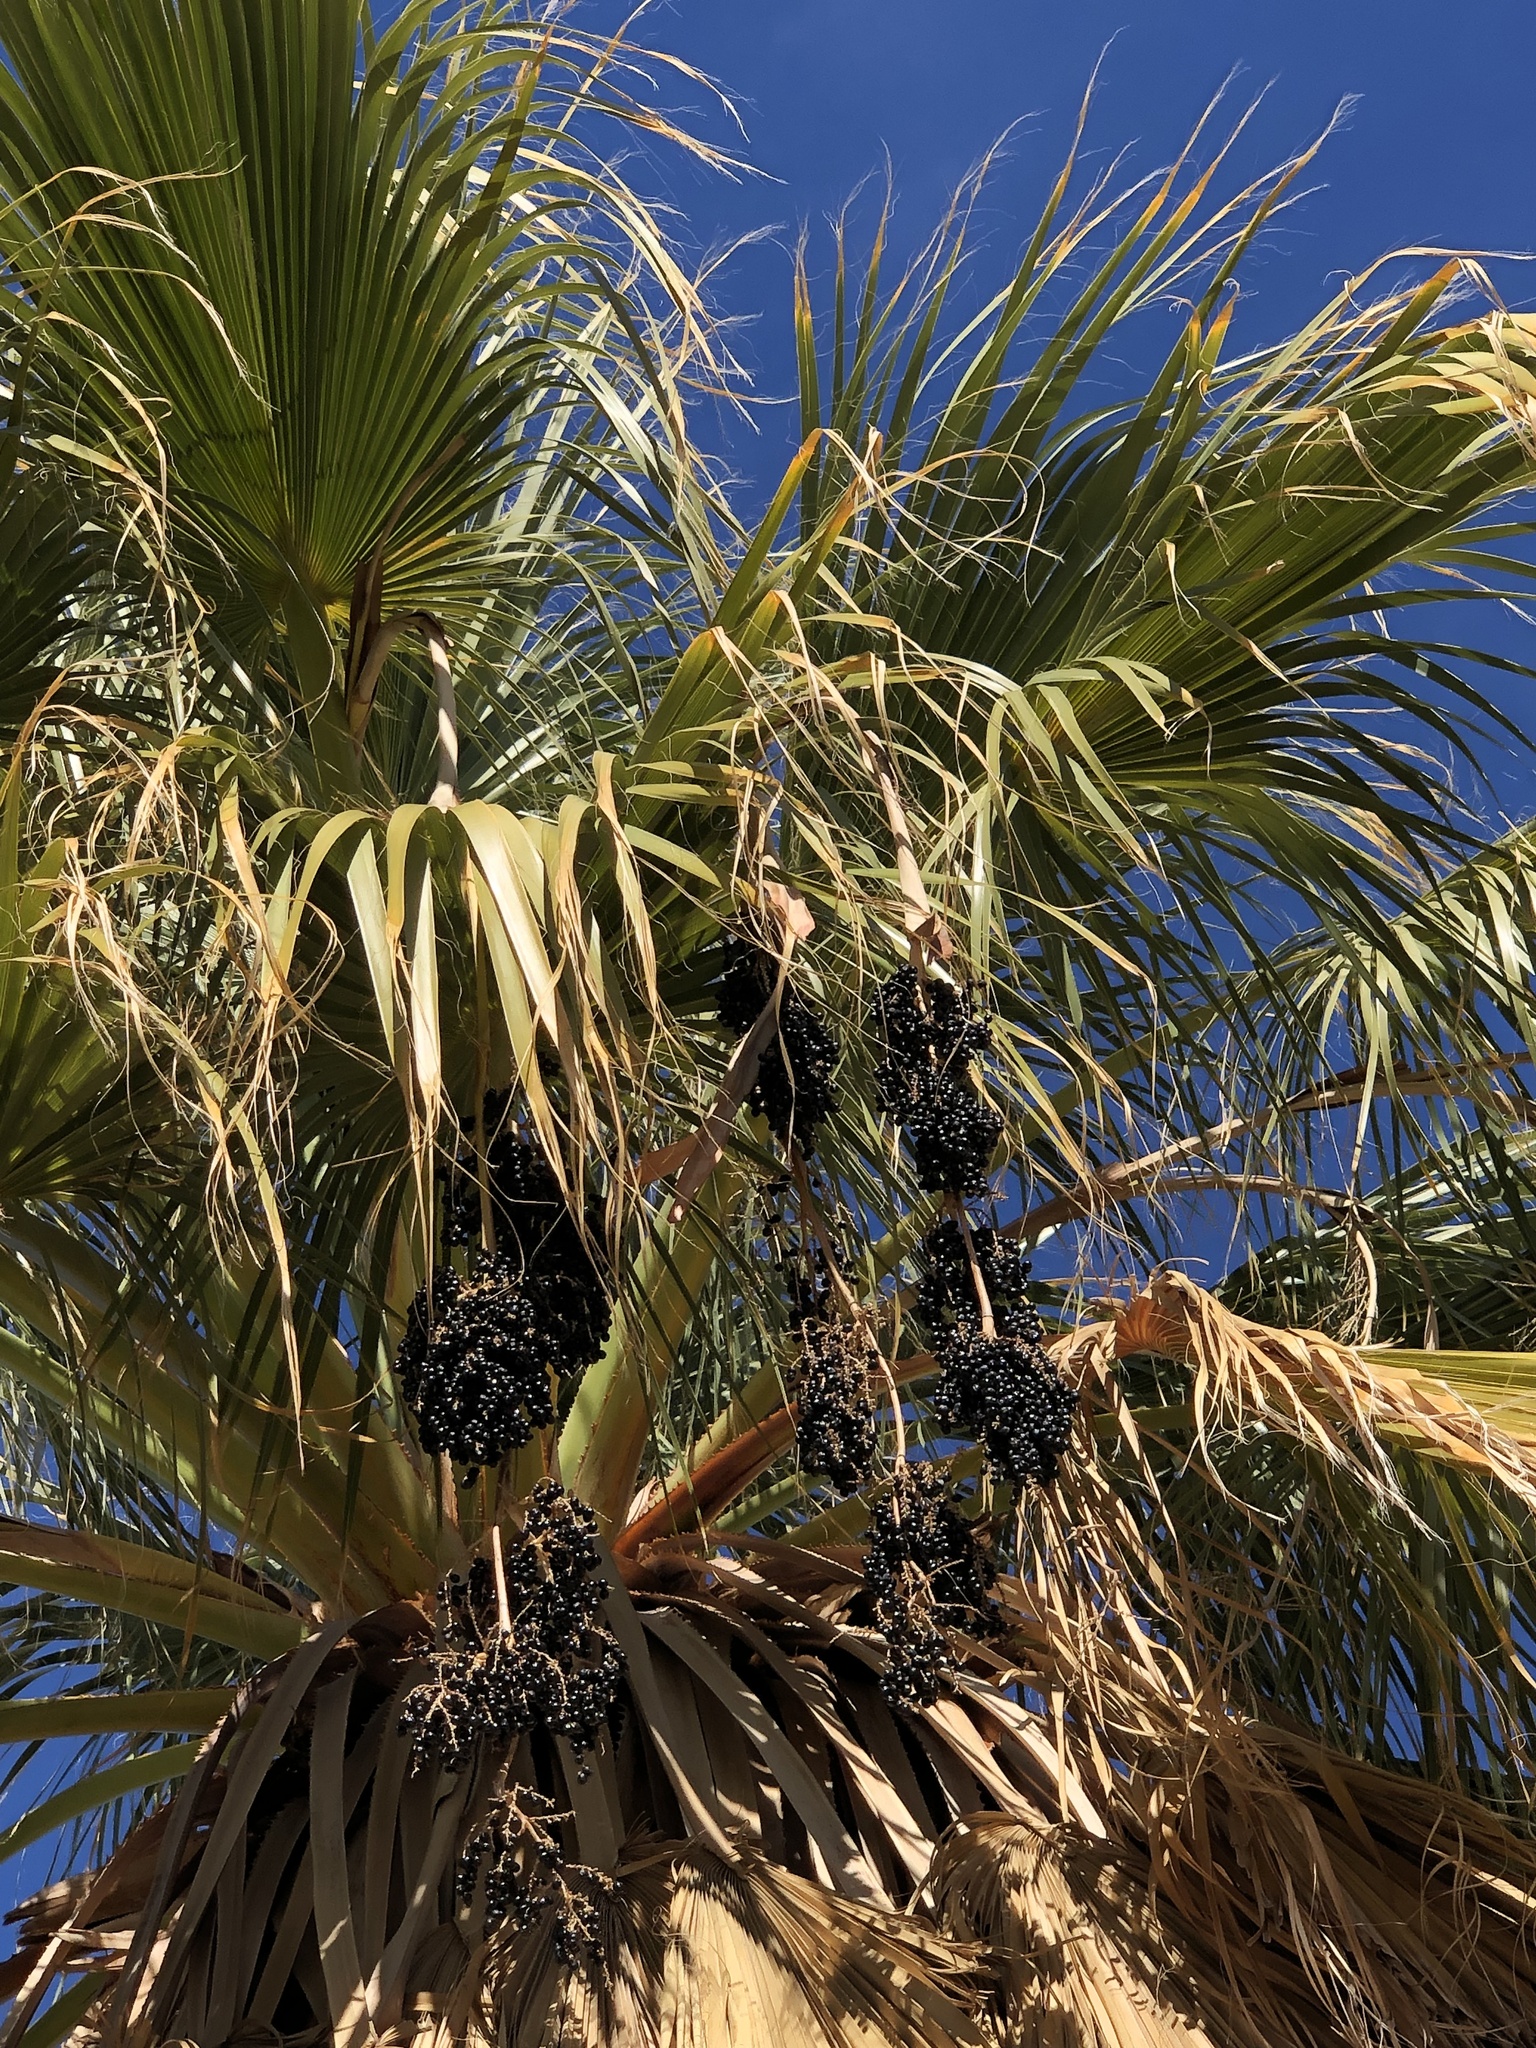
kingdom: Plantae
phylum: Tracheophyta
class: Liliopsida
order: Arecales
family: Arecaceae
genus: Washingtonia
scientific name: Washingtonia filifera
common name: California fan palm
